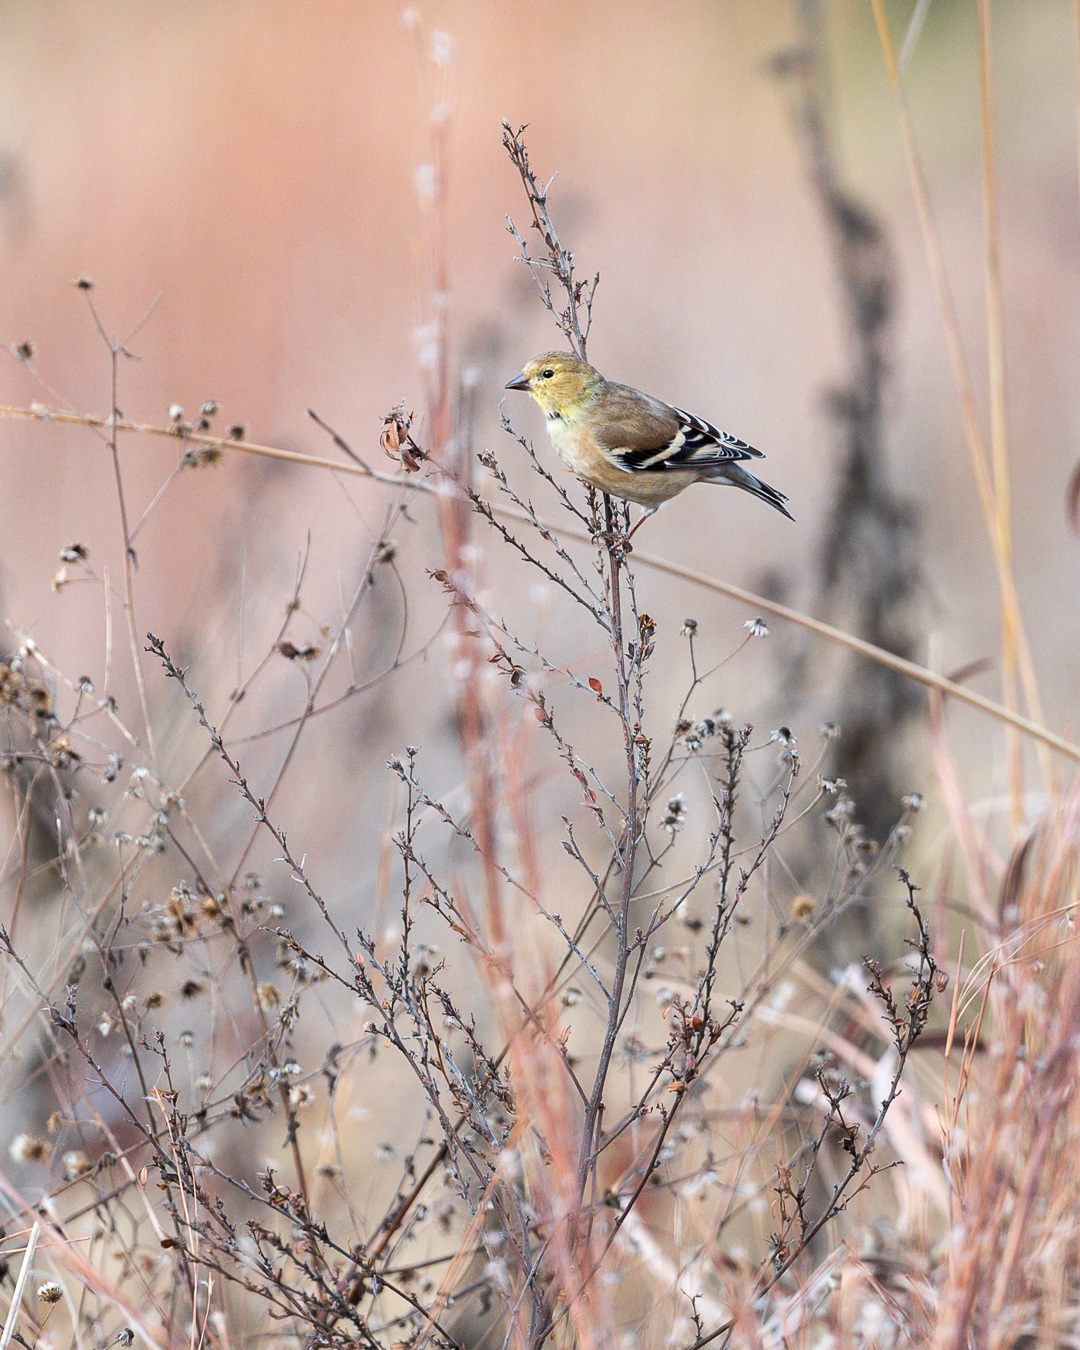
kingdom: Animalia
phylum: Chordata
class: Aves
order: Passeriformes
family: Fringillidae
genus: Spinus
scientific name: Spinus tristis
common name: American goldfinch
